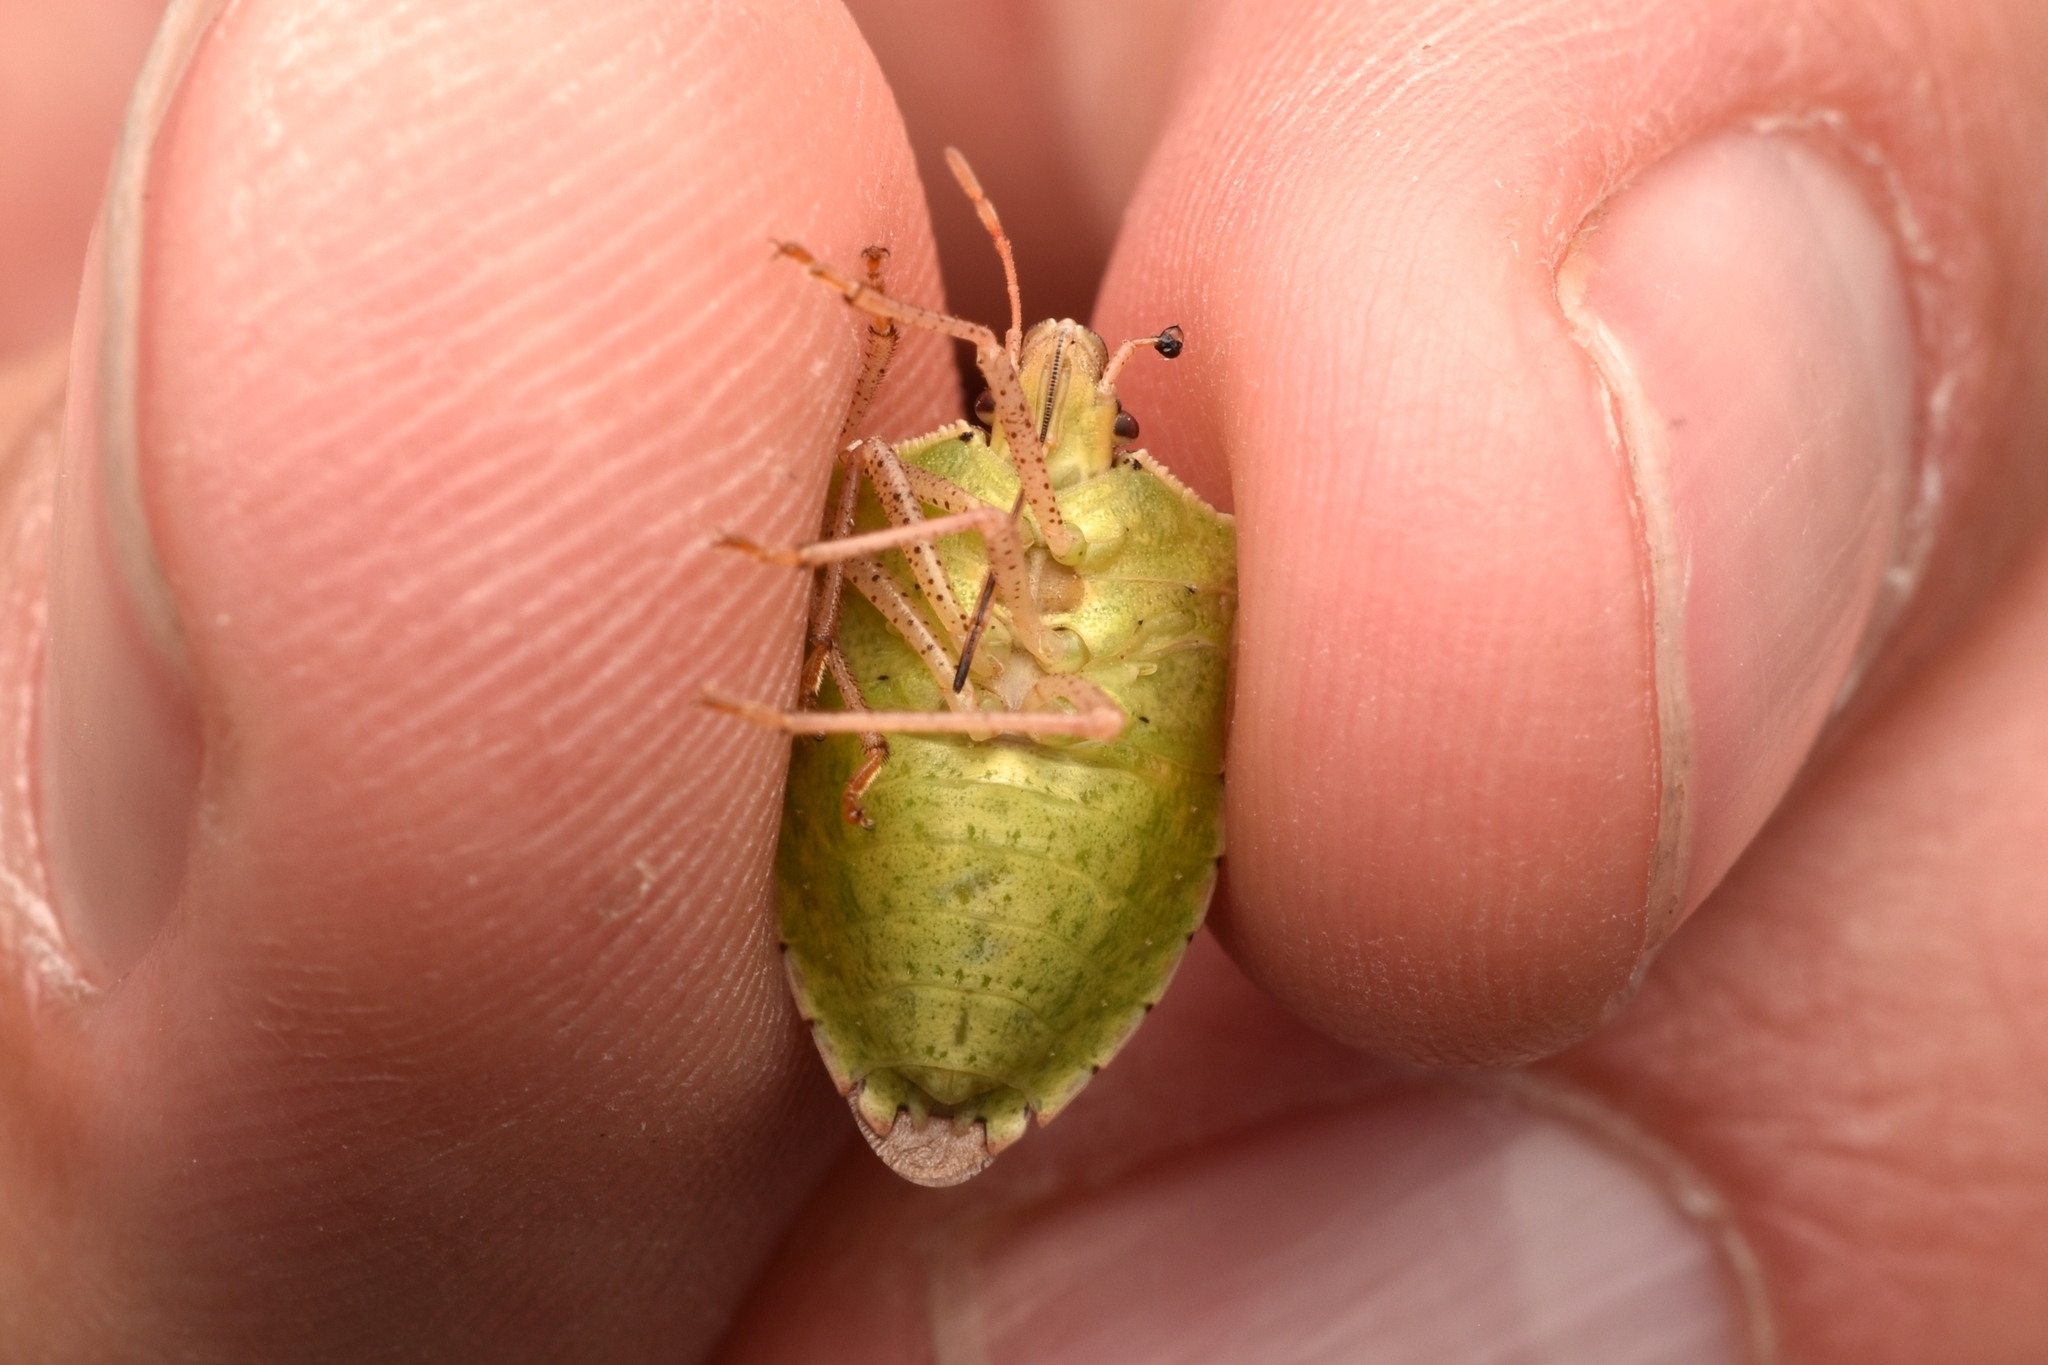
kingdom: Animalia
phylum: Arthropoda
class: Insecta
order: Hemiptera
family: Pentatomidae
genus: Euschistus
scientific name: Euschistus servus
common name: Brown stink bug
